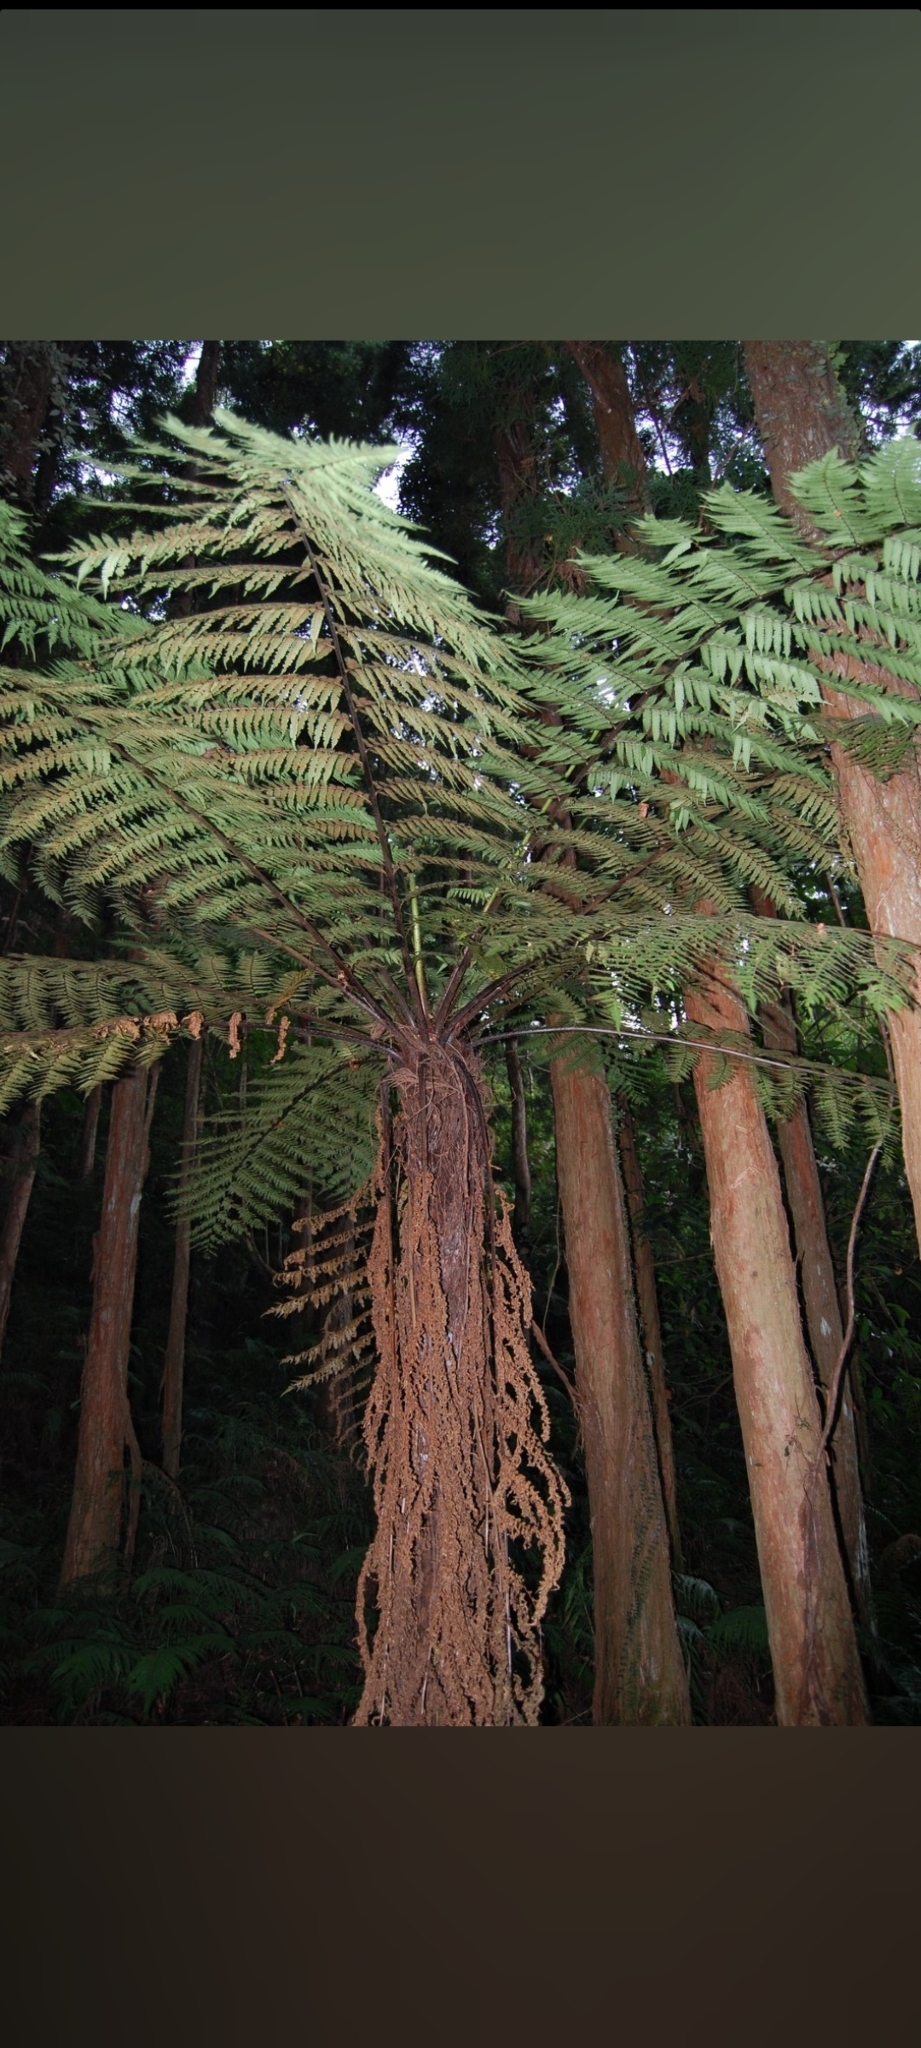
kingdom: Plantae
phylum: Tracheophyta
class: Polypodiopsida
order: Cyatheales
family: Cyatheaceae
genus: Alsophila
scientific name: Alsophila spinulosa
